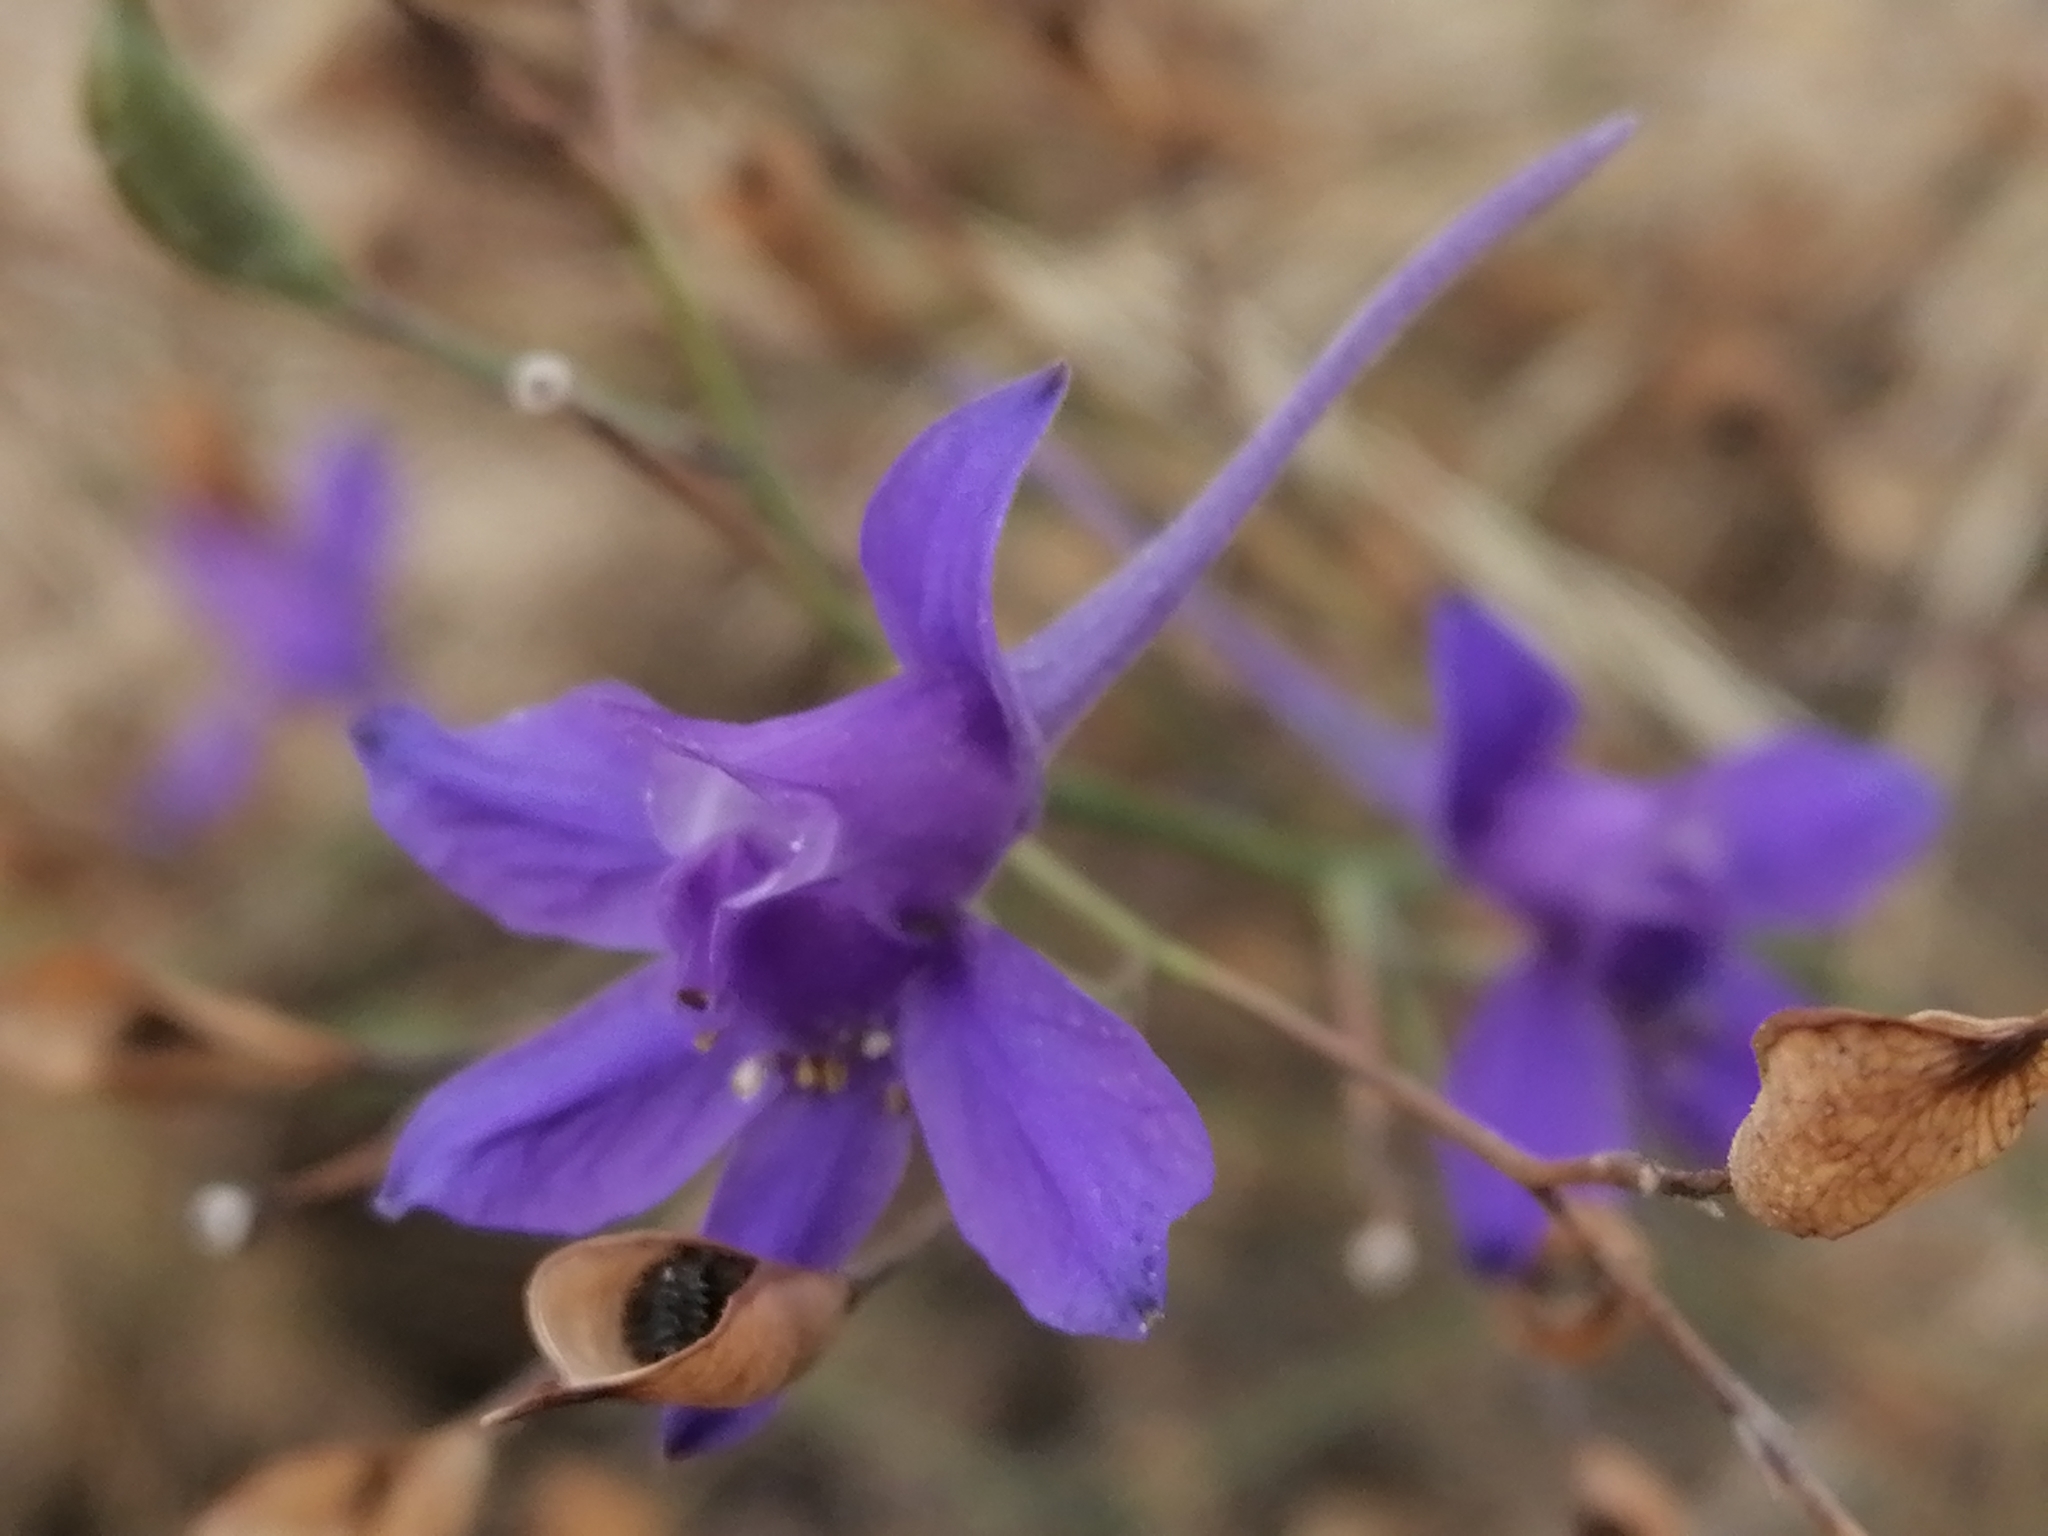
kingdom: Plantae
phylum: Tracheophyta
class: Magnoliopsida
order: Ranunculales
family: Ranunculaceae
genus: Delphinium
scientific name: Delphinium consolida
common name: Branching larkspur
